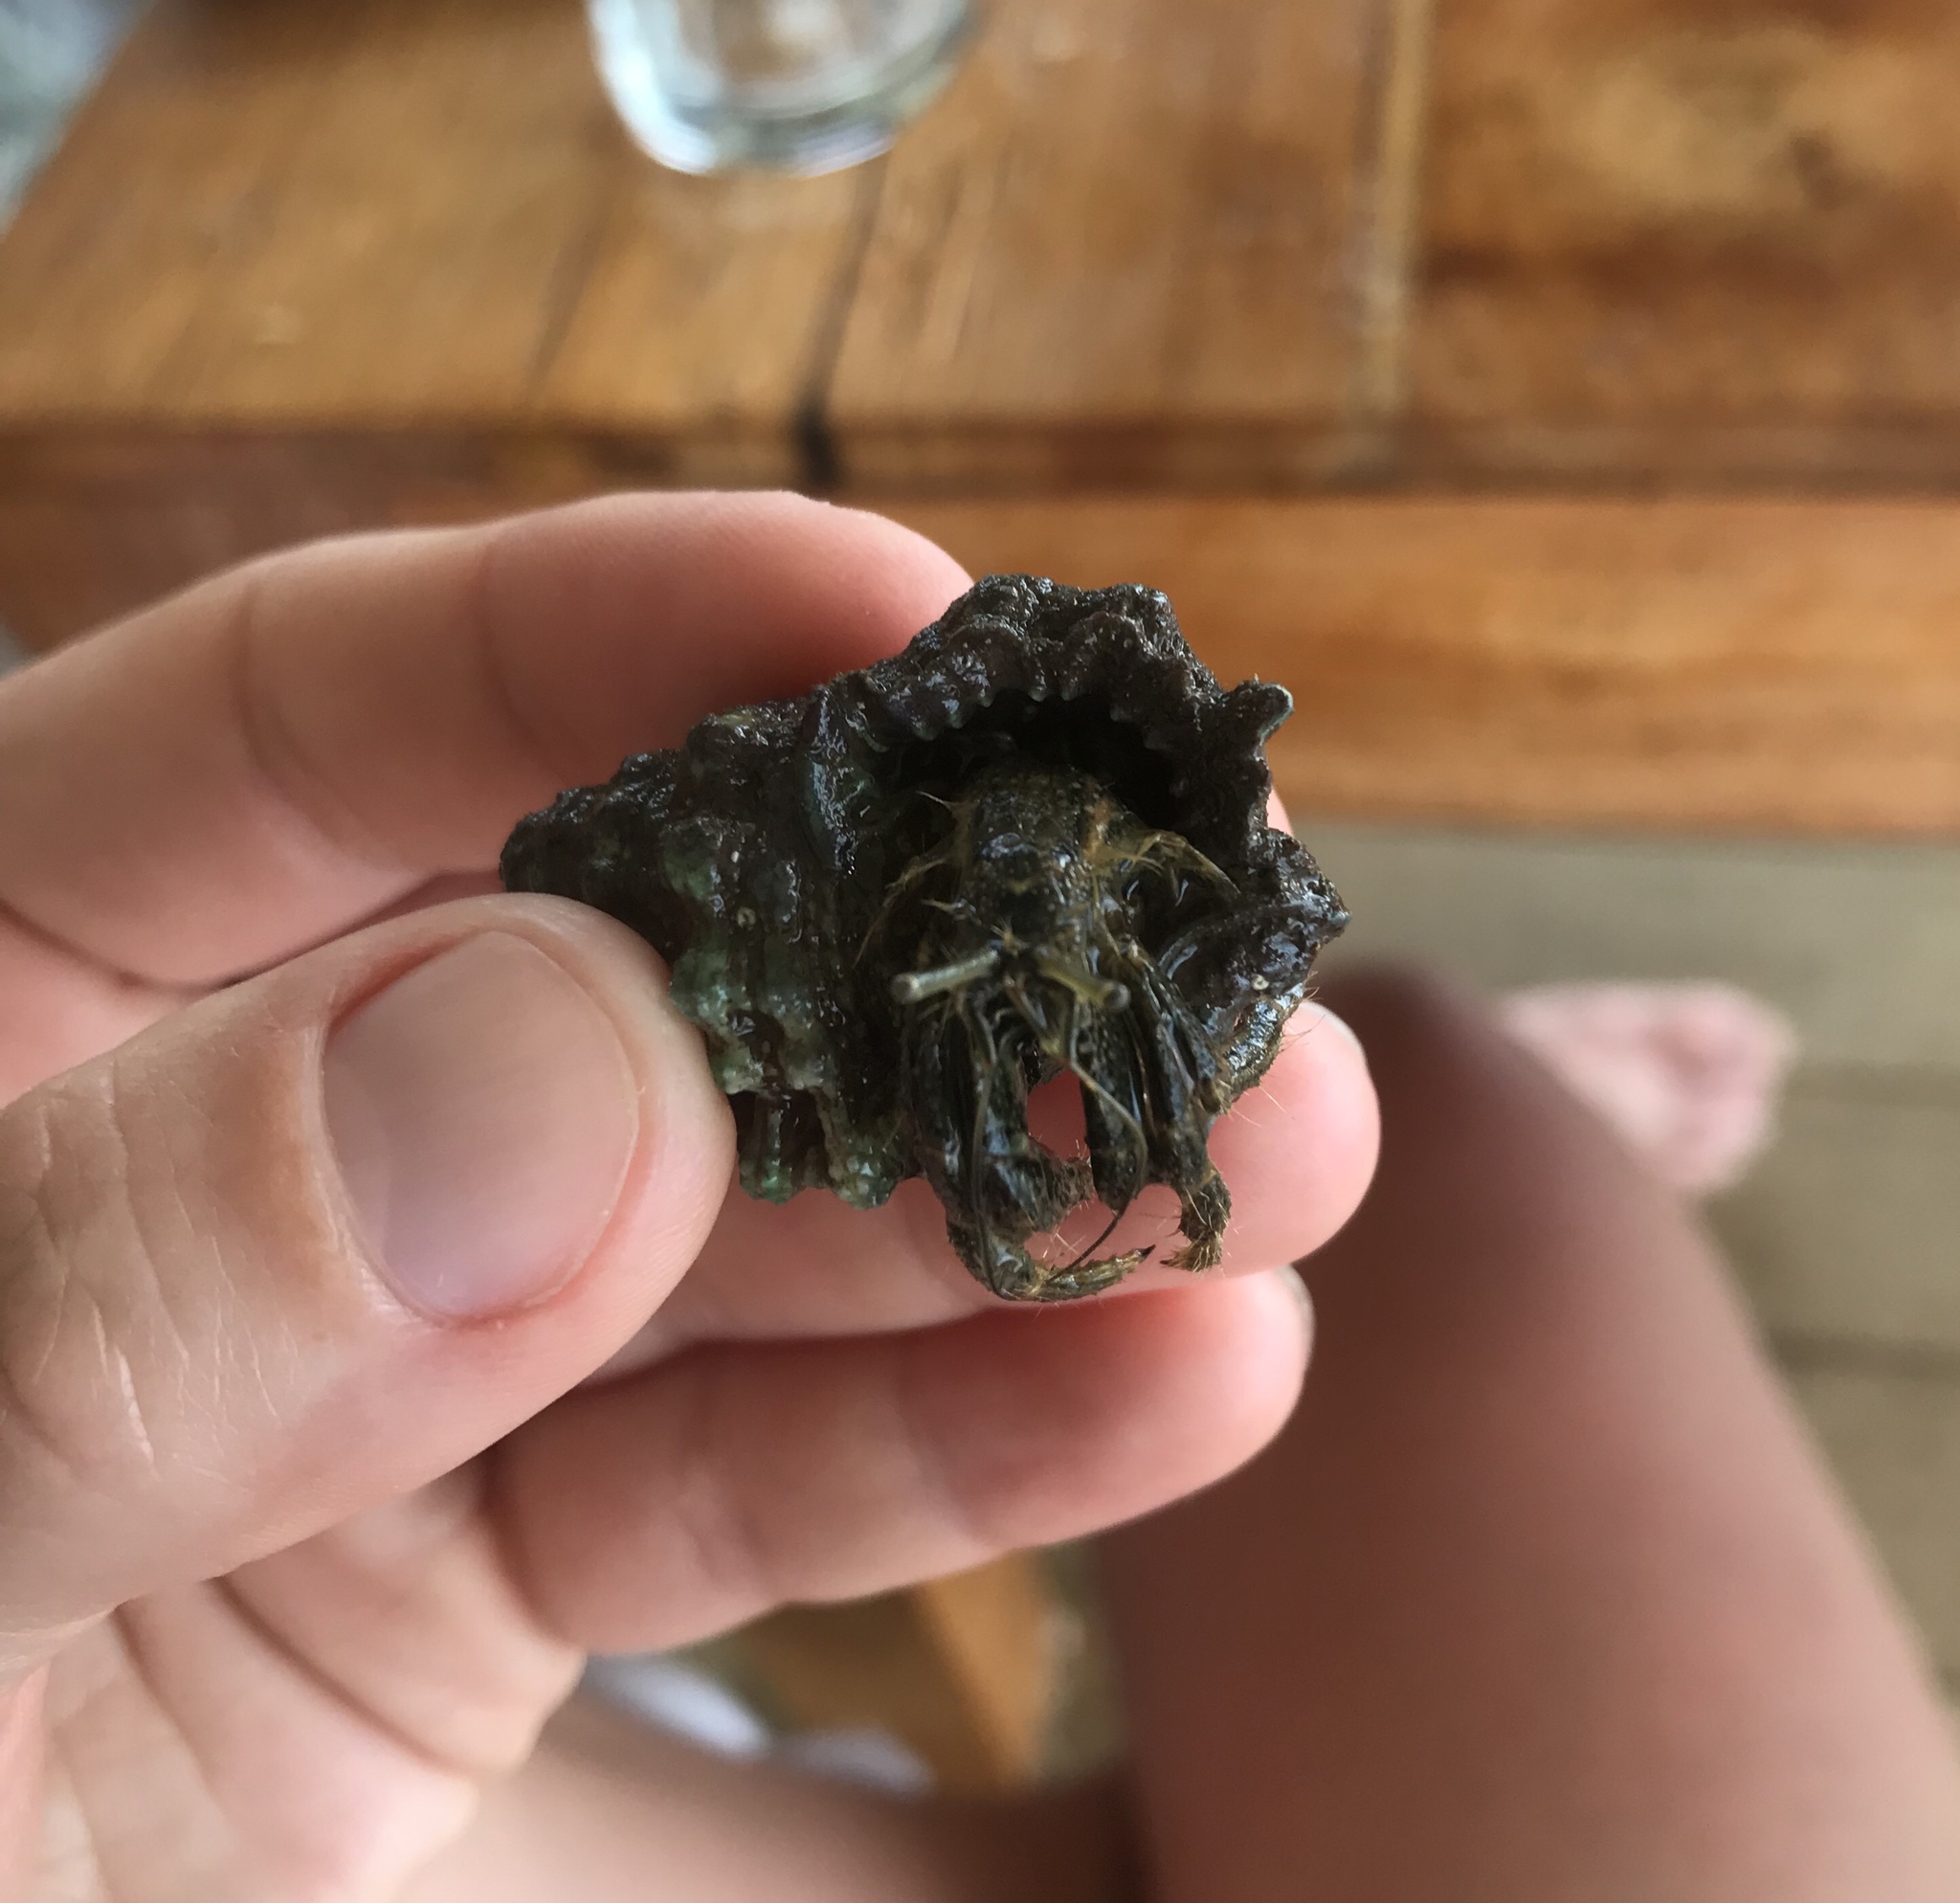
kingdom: Animalia
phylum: Arthropoda
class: Malacostraca
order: Decapoda
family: Diogenidae
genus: Clibanarius
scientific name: Clibanarius striolatus
